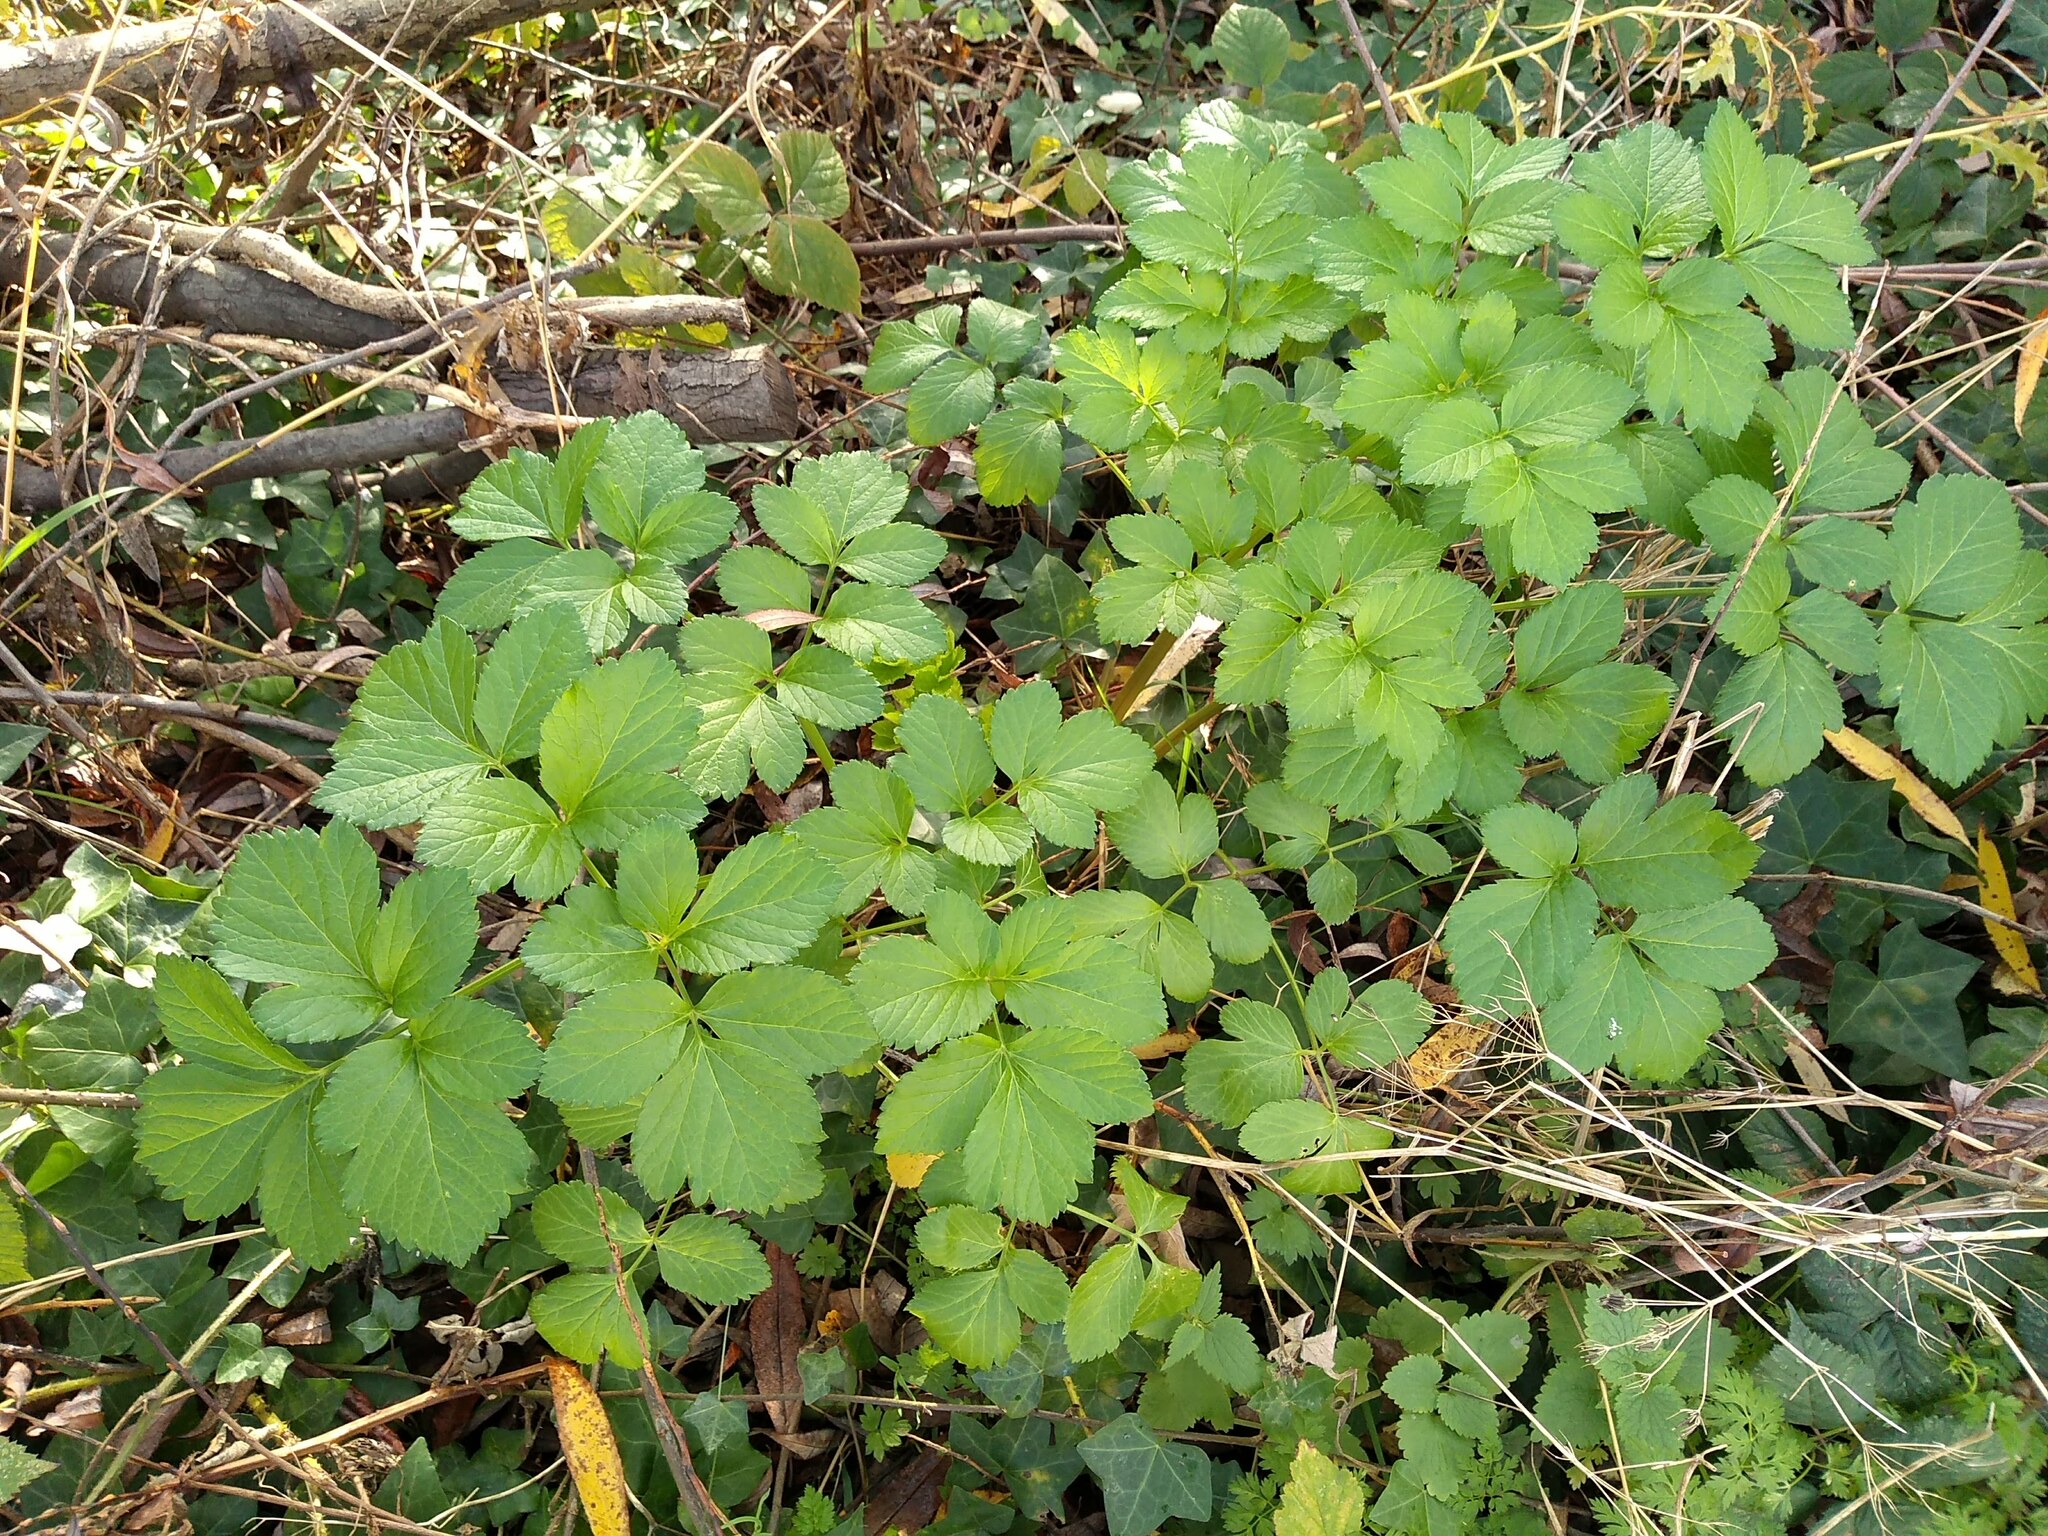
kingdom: Plantae
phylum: Tracheophyta
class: Magnoliopsida
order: Apiales
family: Apiaceae
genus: Smyrnium
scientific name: Smyrnium olusatrum
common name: Alexanders
